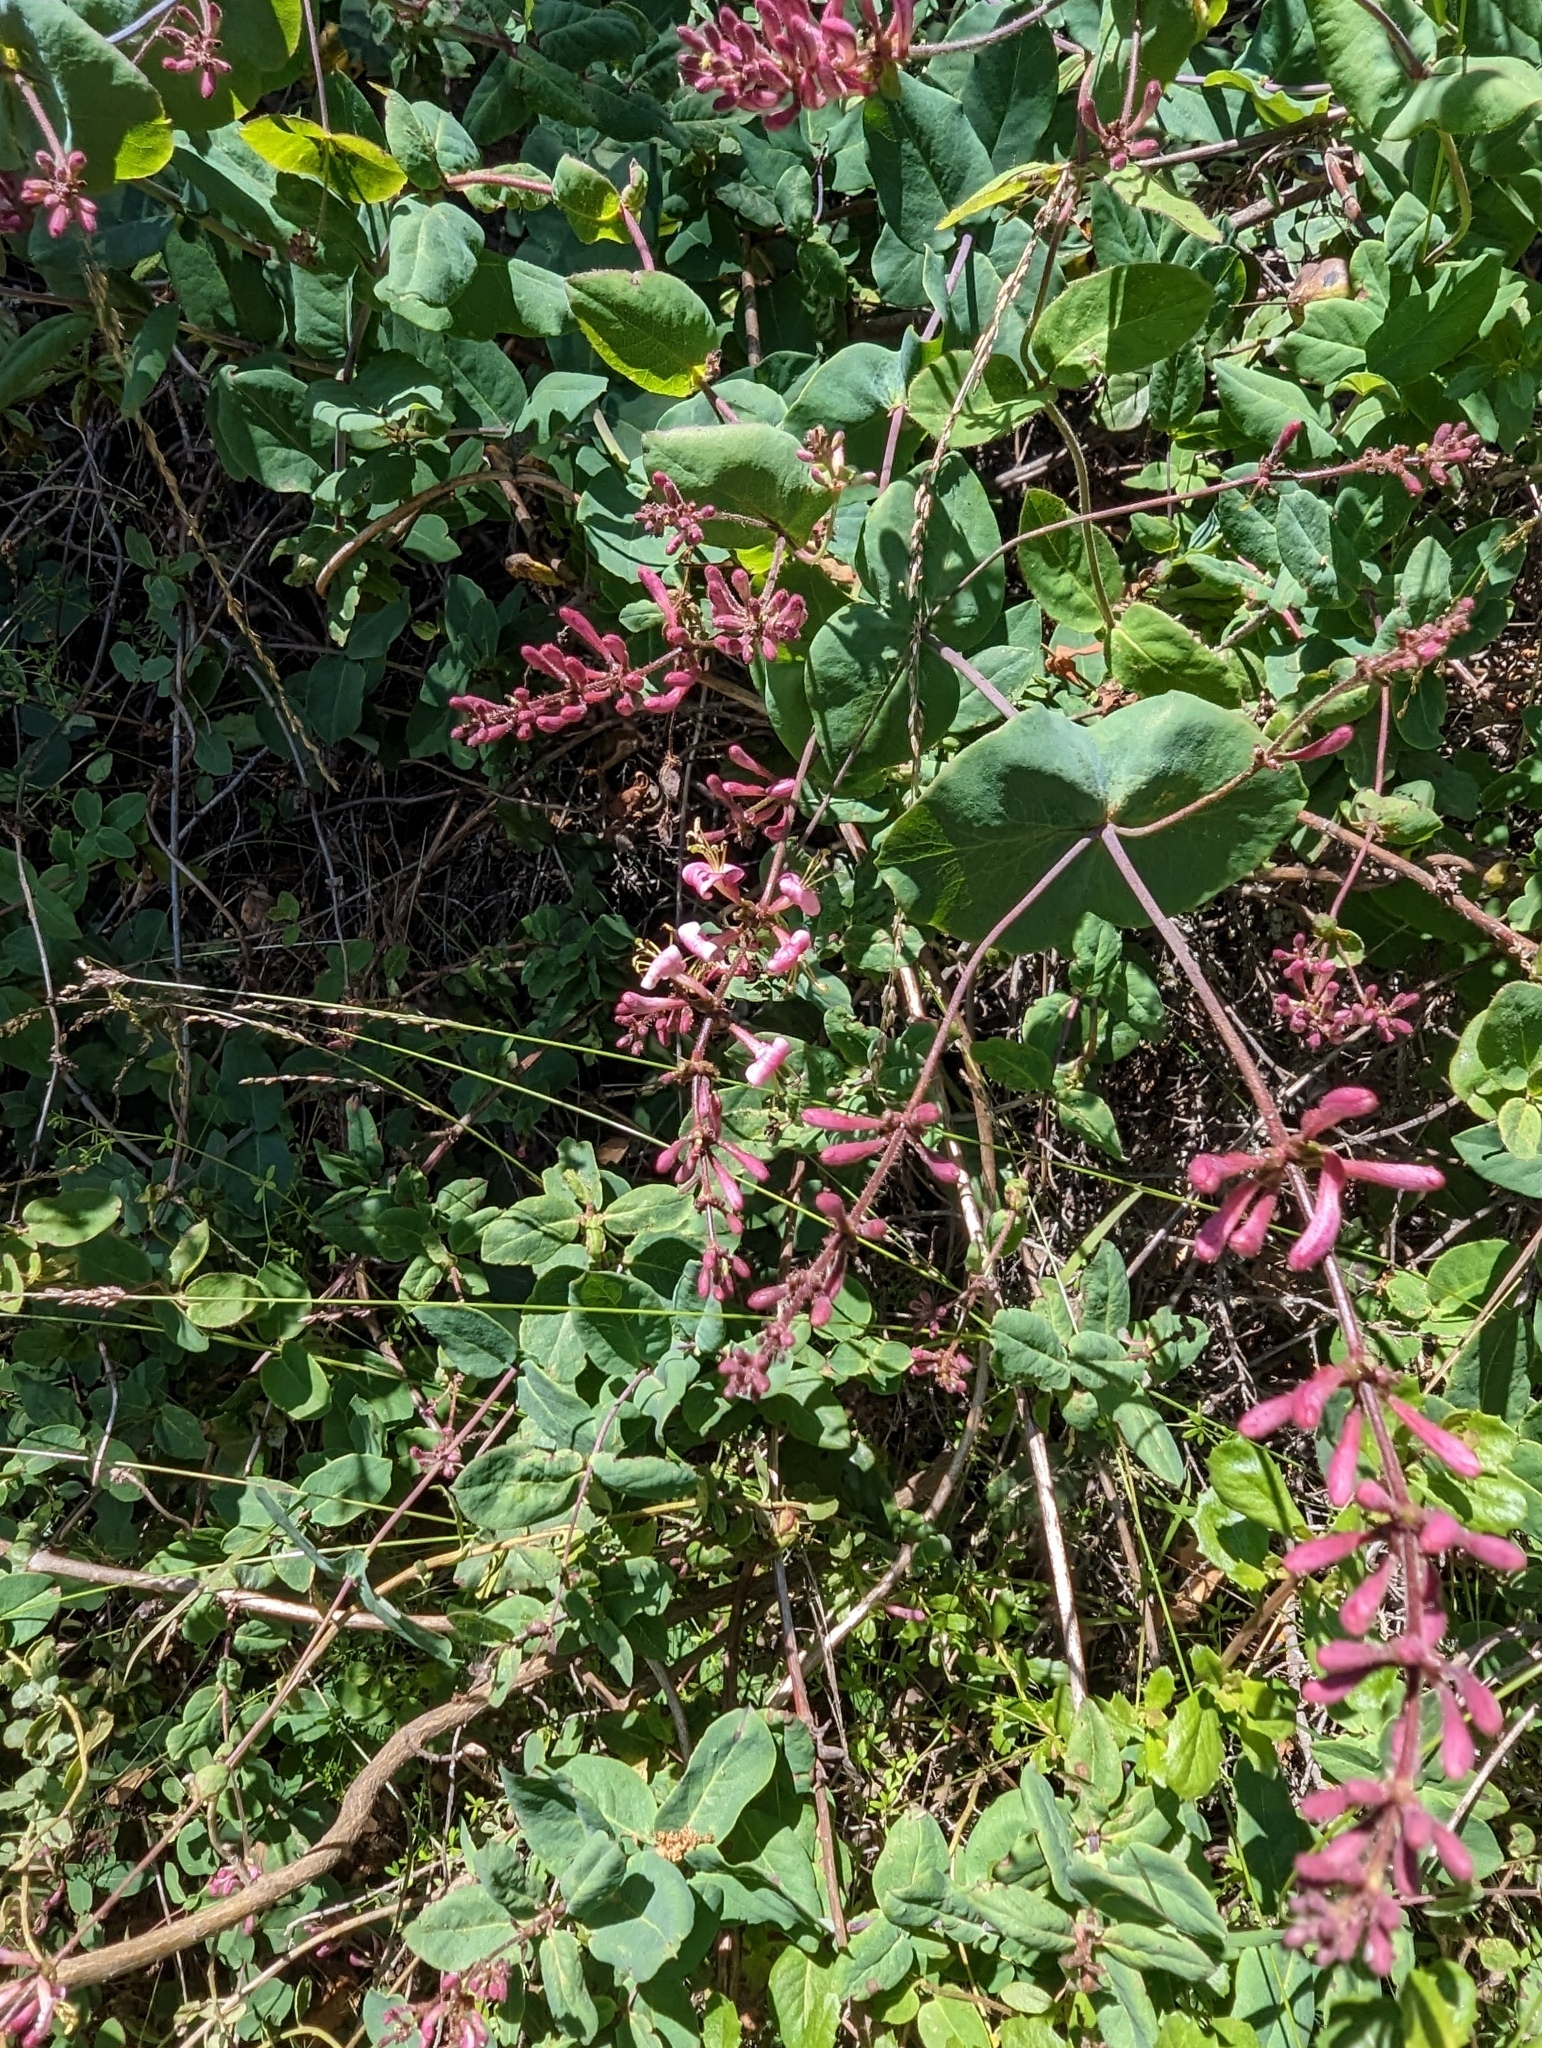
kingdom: Plantae
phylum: Tracheophyta
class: Magnoliopsida
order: Dipsacales
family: Caprifoliaceae
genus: Lonicera
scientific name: Lonicera hispidula
